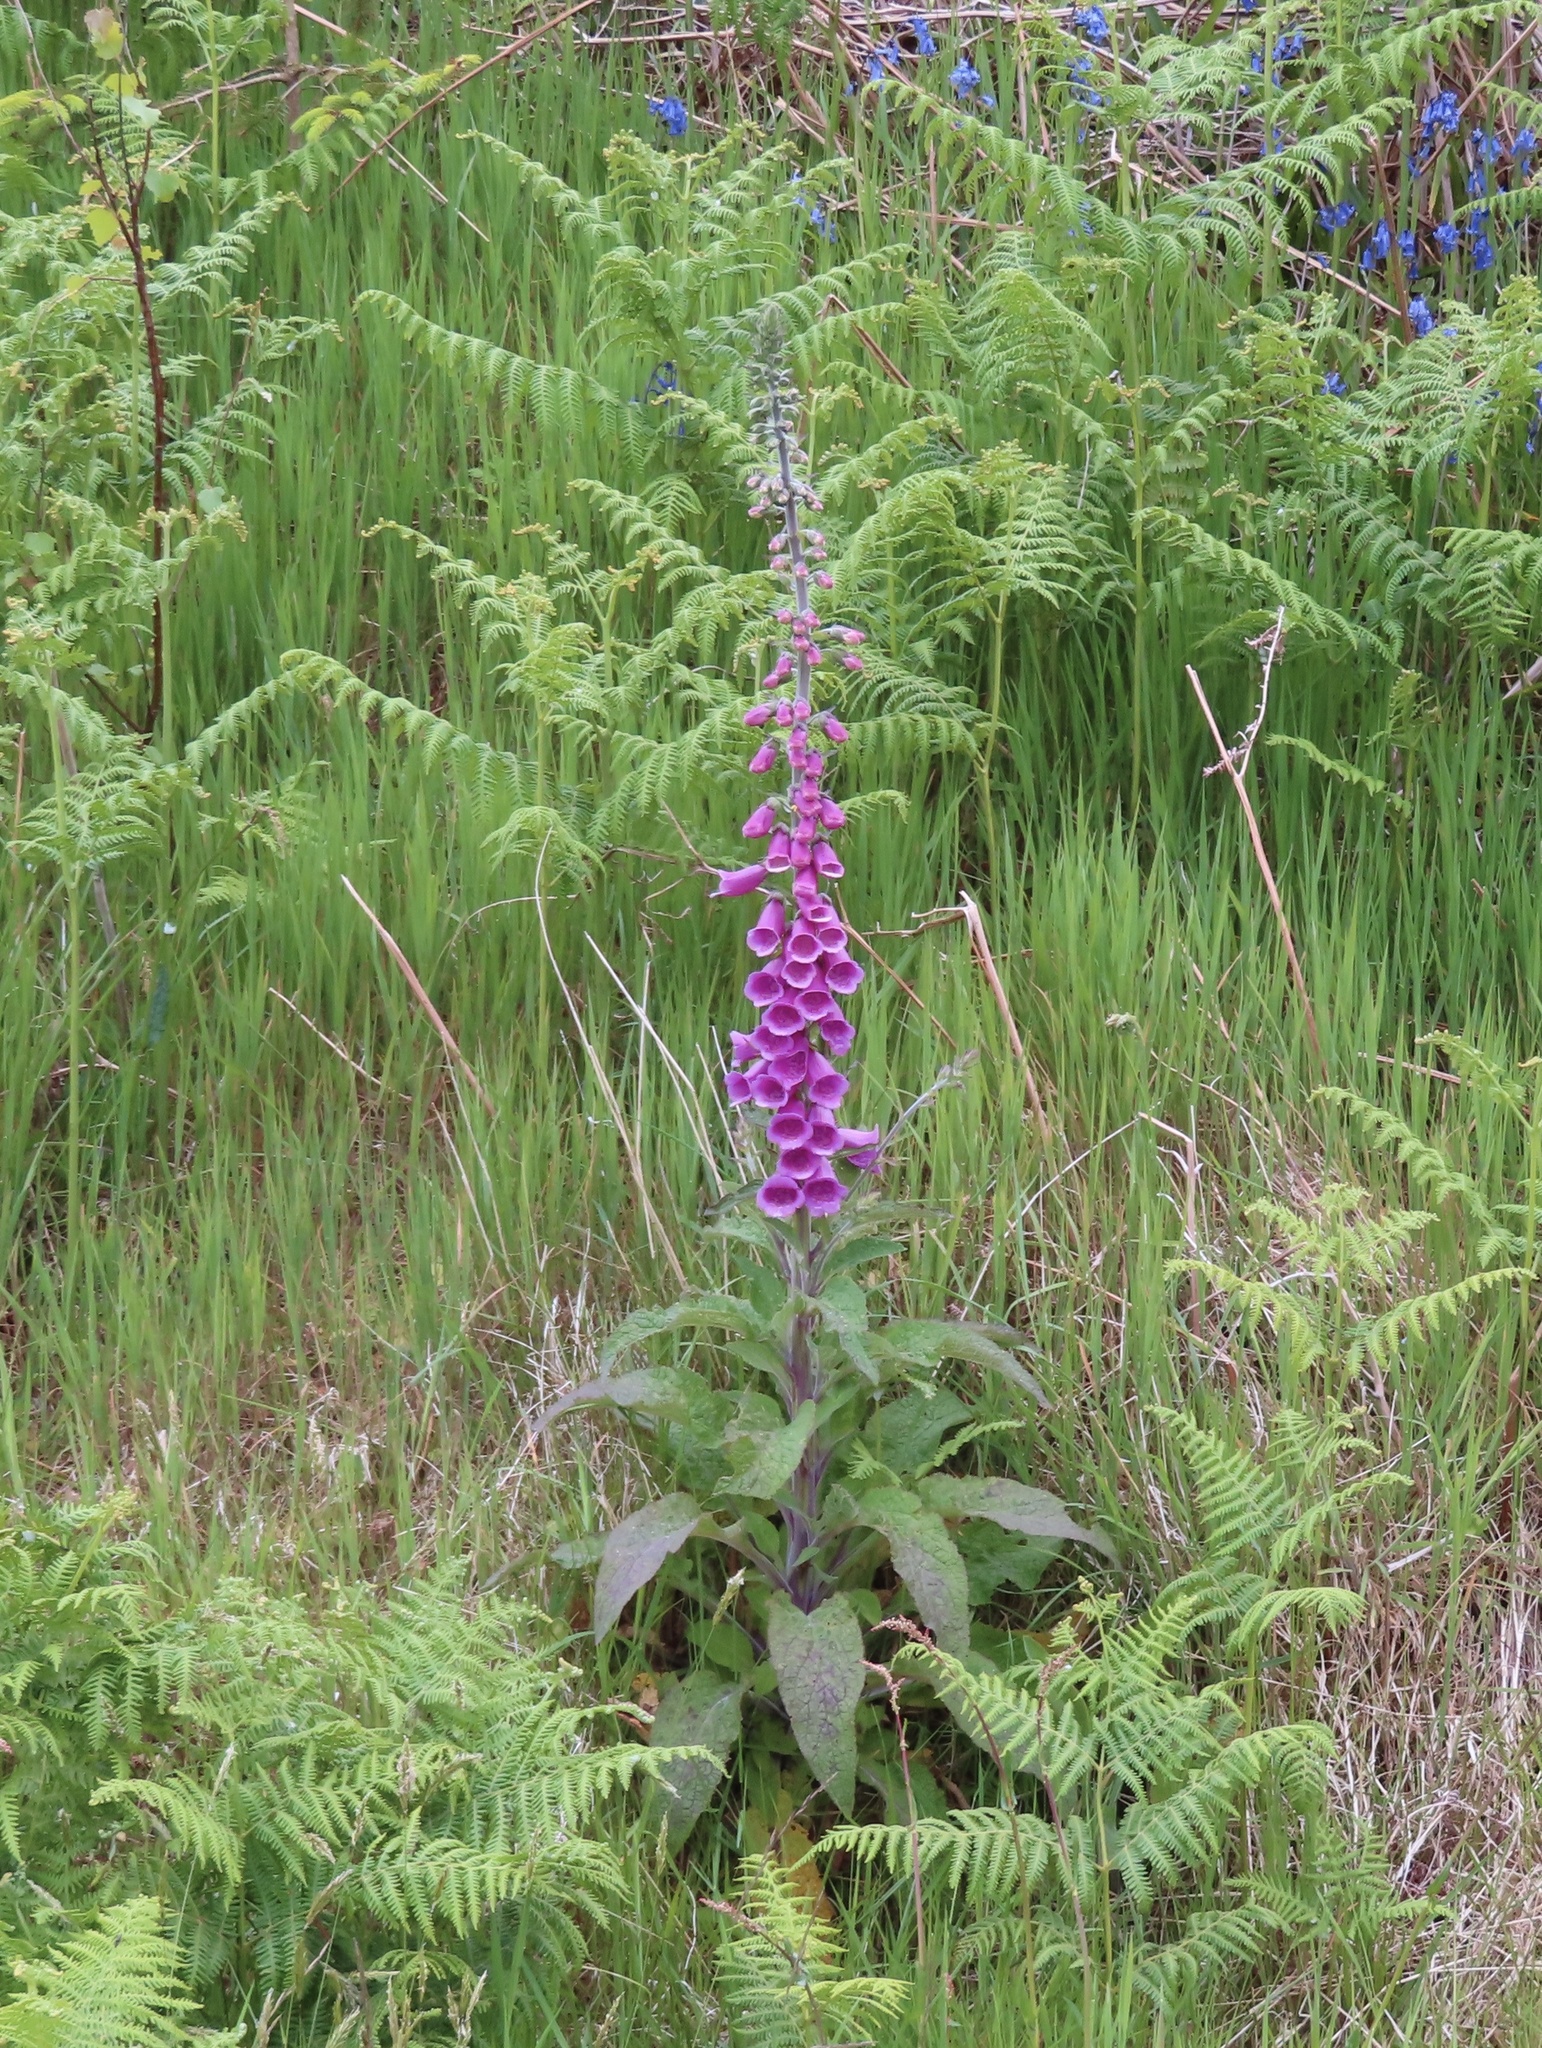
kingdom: Plantae
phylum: Tracheophyta
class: Magnoliopsida
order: Lamiales
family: Plantaginaceae
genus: Digitalis
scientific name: Digitalis purpurea
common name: Foxglove
